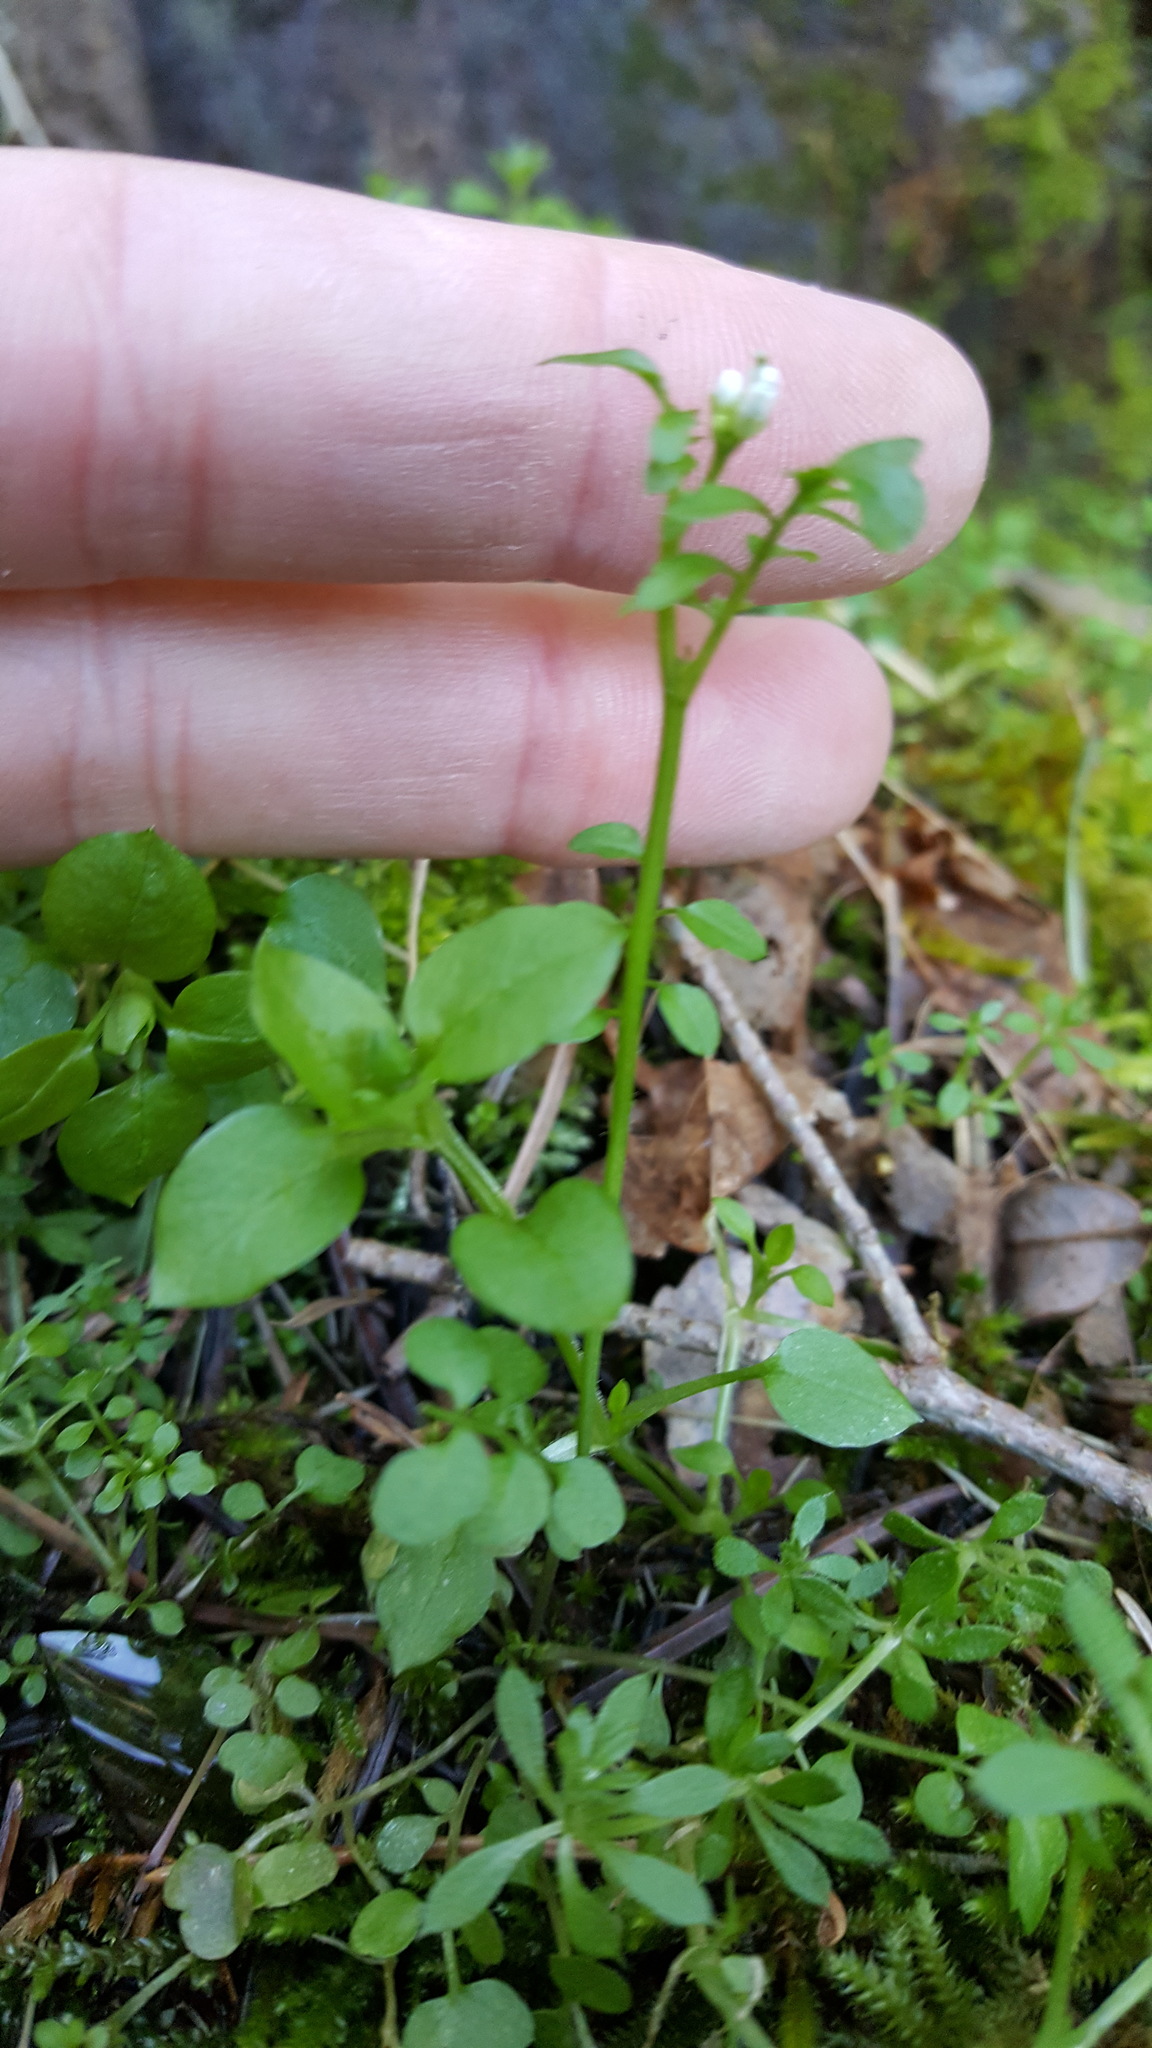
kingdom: Plantae
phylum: Tracheophyta
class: Magnoliopsida
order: Brassicales
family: Brassicaceae
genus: Cardamine
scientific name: Cardamine oligosperma
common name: Idaho bittercress
